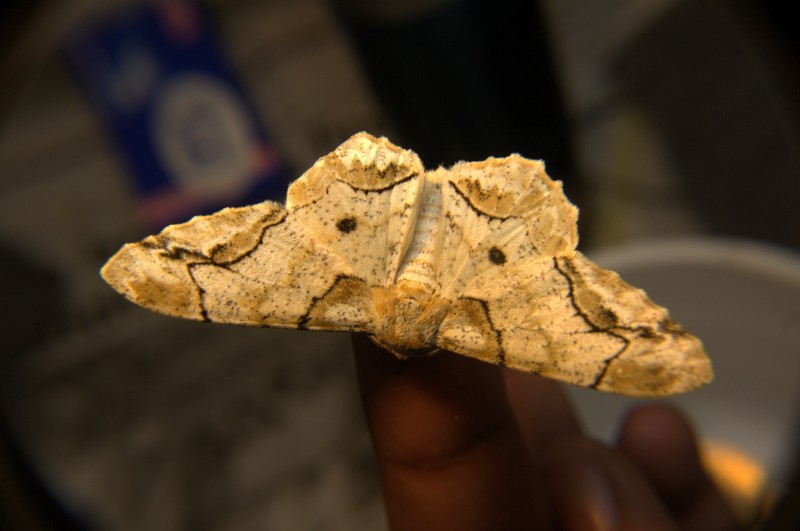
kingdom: Animalia
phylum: Arthropoda
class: Insecta
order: Lepidoptera
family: Geometridae
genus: Biston
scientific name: Biston bengaliaria
